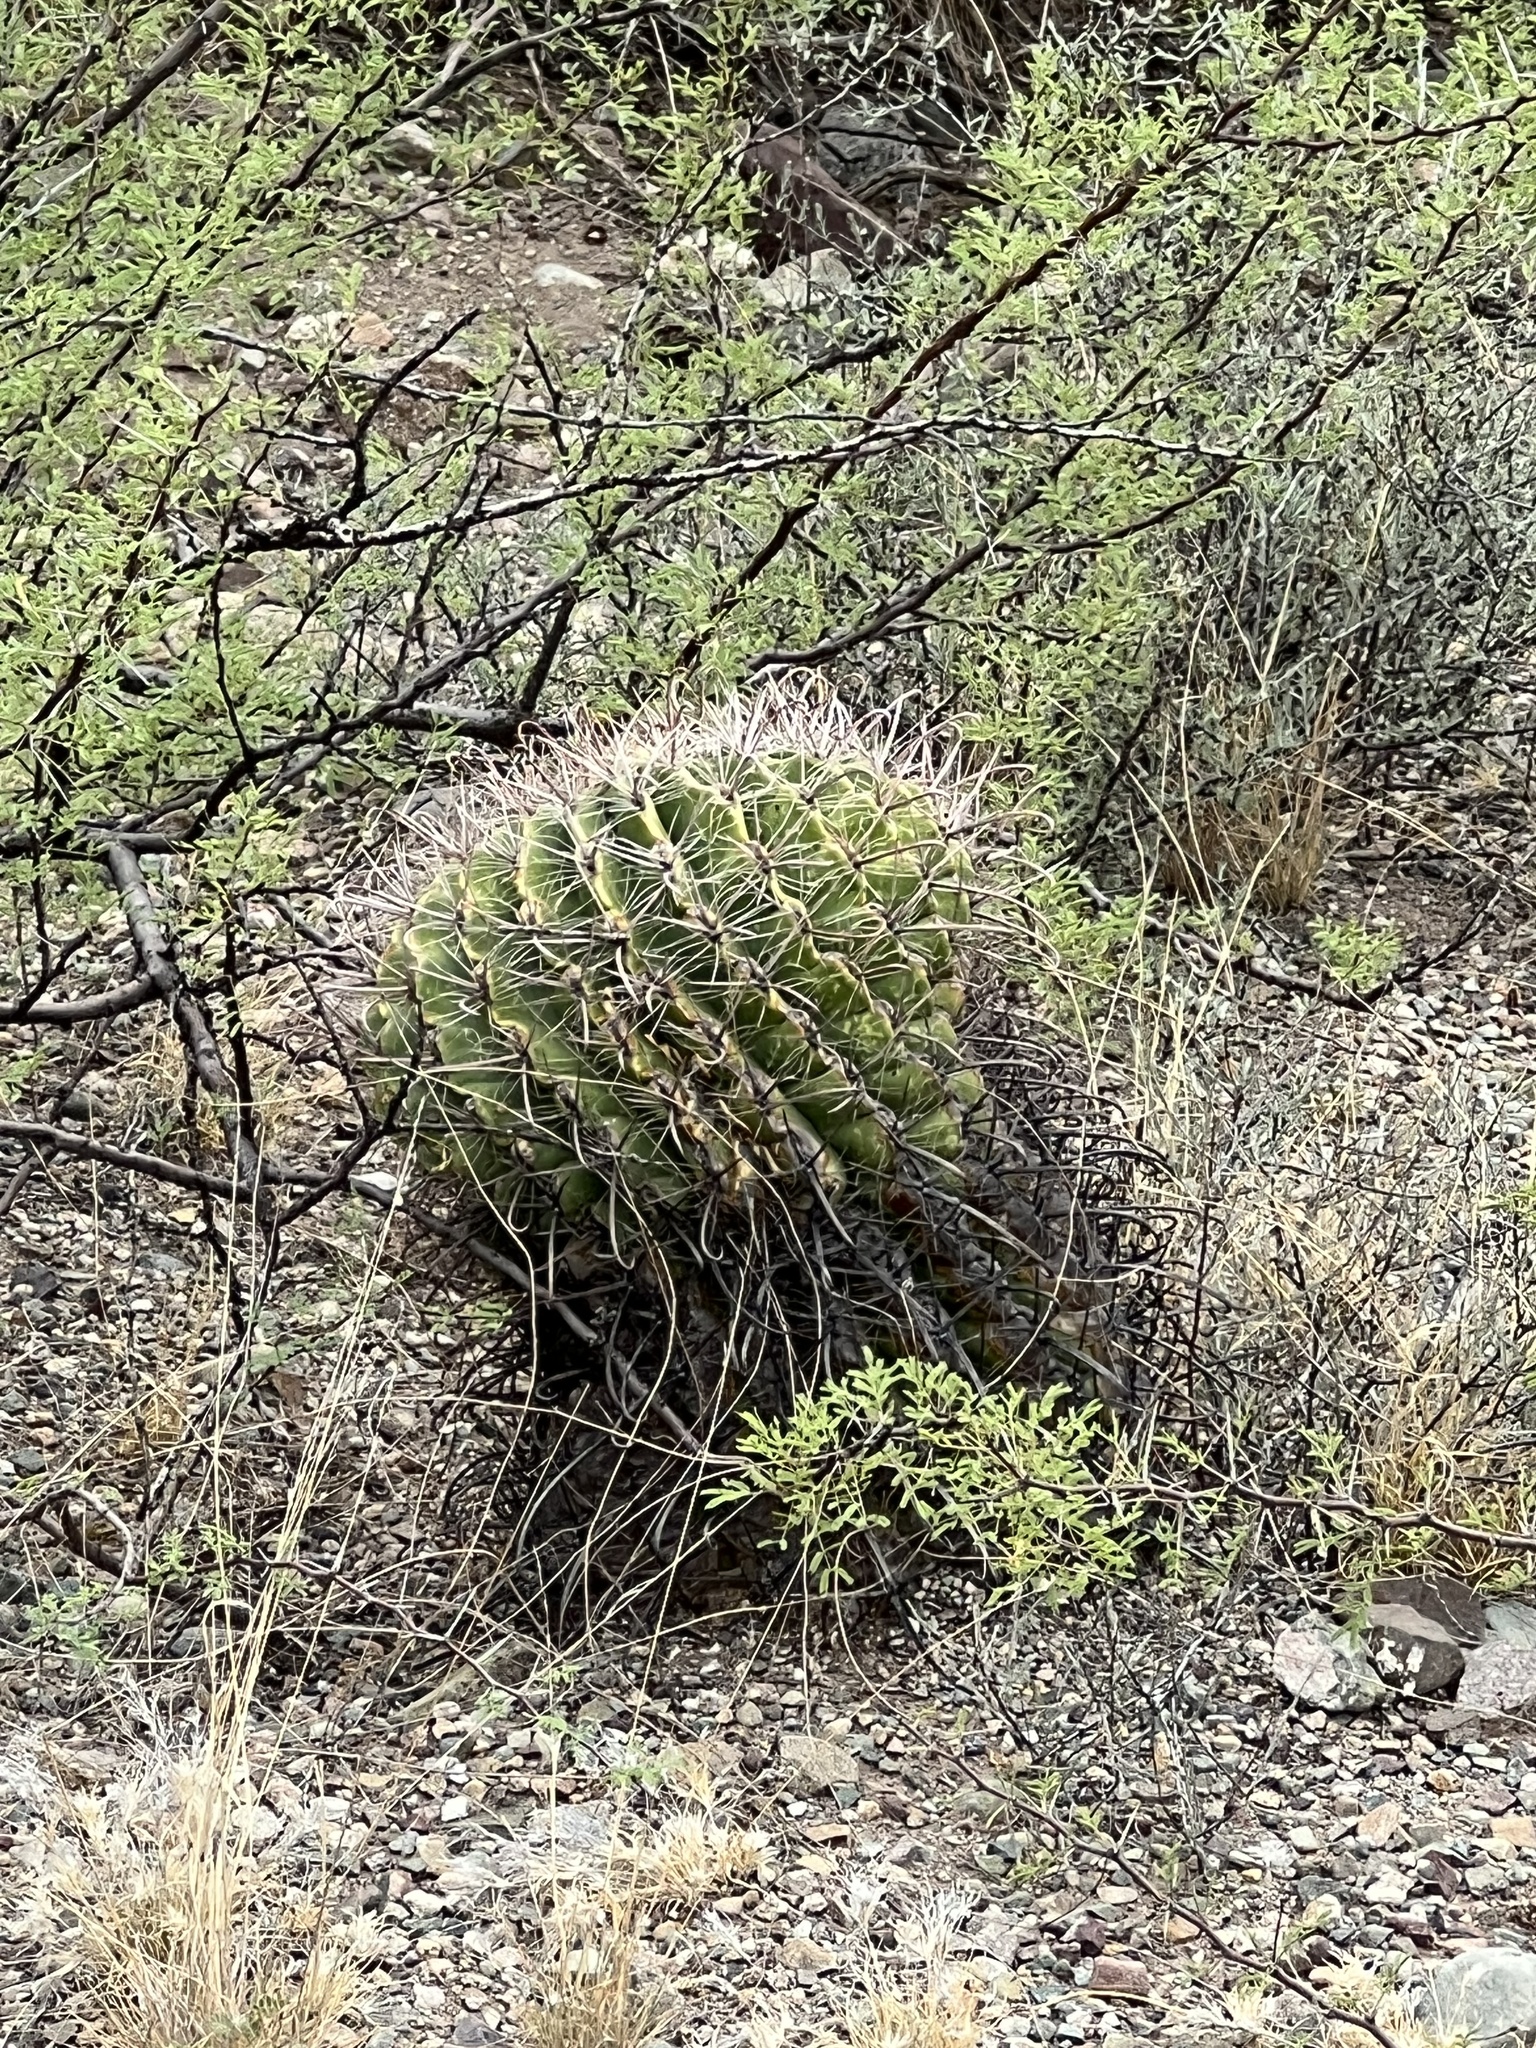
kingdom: Plantae
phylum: Tracheophyta
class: Magnoliopsida
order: Caryophyllales
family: Cactaceae
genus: Ferocactus
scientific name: Ferocactus wislizeni
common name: Candy barrel cactus
